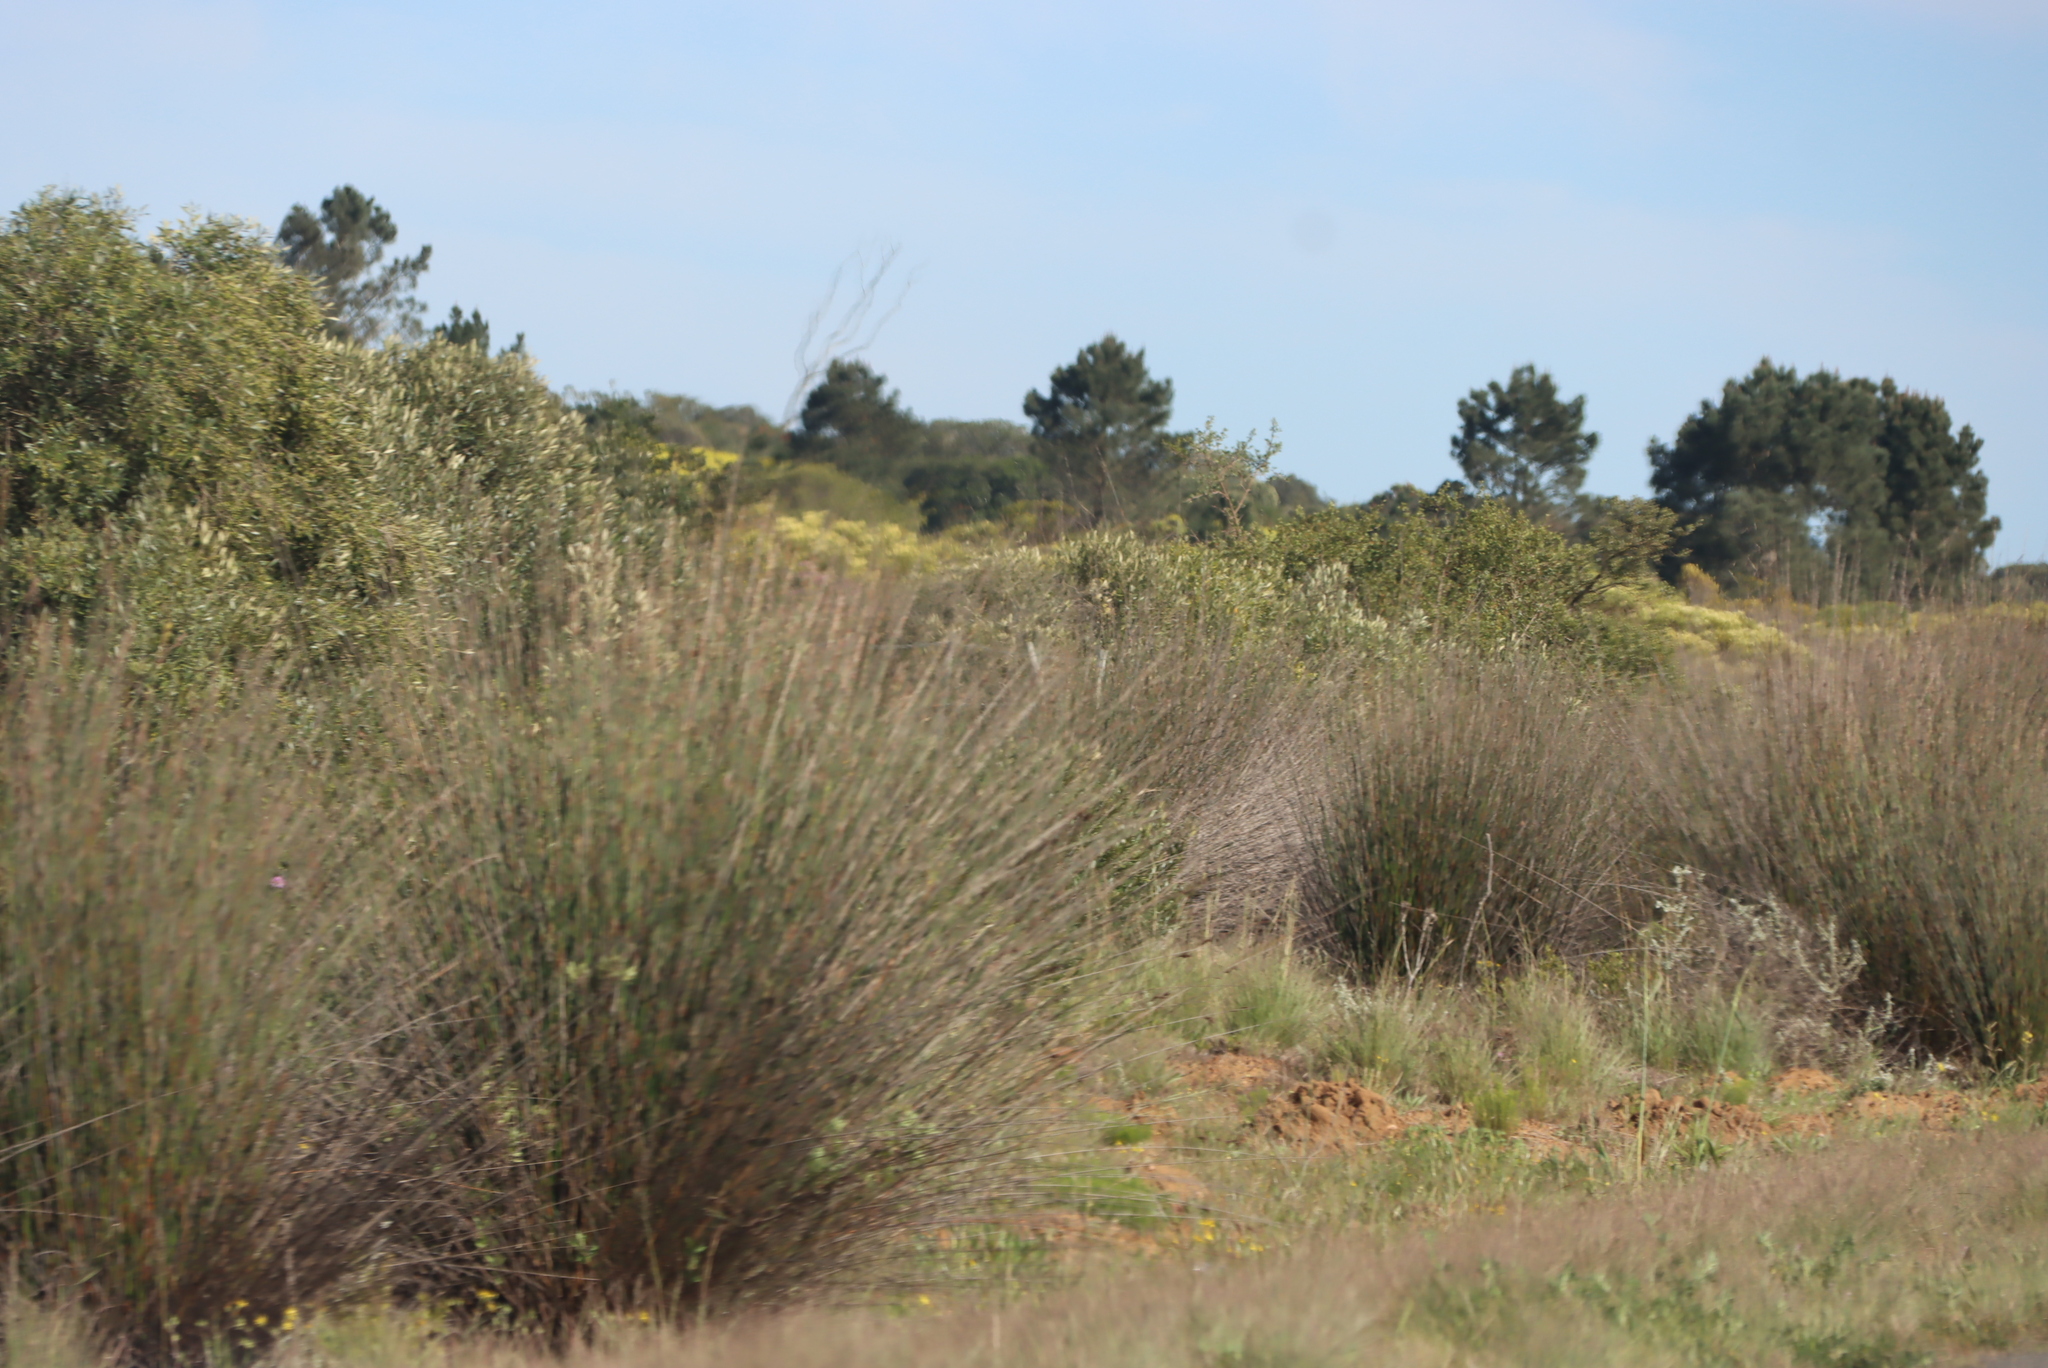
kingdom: Plantae
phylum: Tracheophyta
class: Liliopsida
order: Poales
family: Restionaceae
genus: Thamnochortus
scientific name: Thamnochortus insignis
